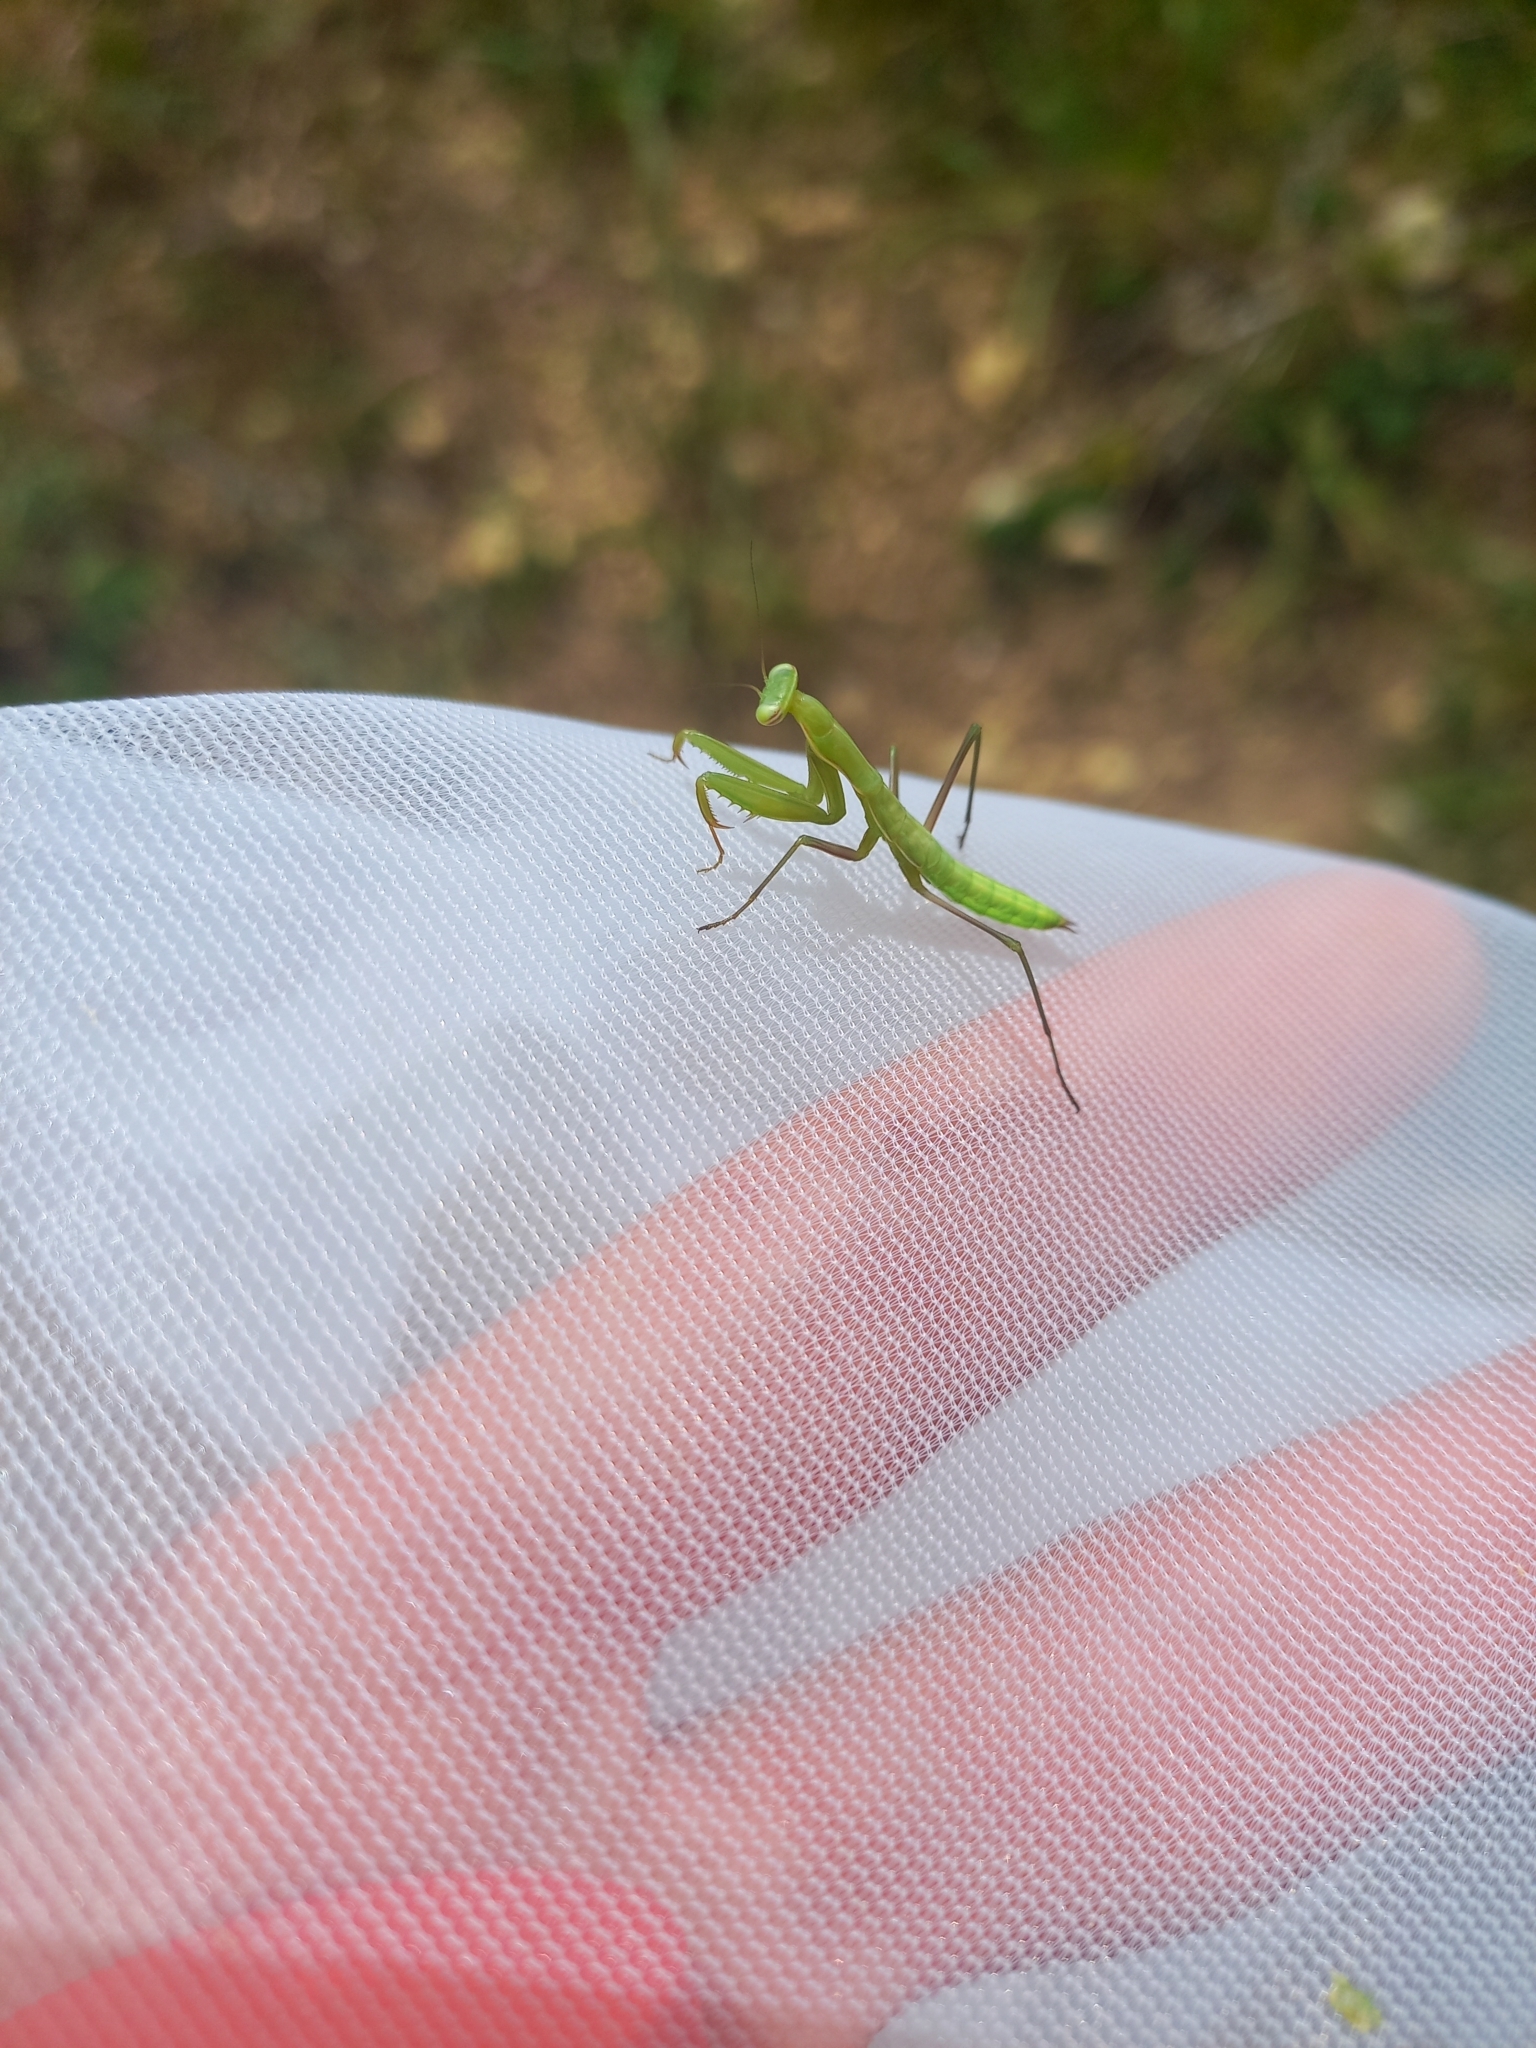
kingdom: Animalia
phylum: Arthropoda
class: Insecta
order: Mantodea
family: Mantidae
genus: Mantis
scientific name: Mantis religiosa
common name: Praying mantis
